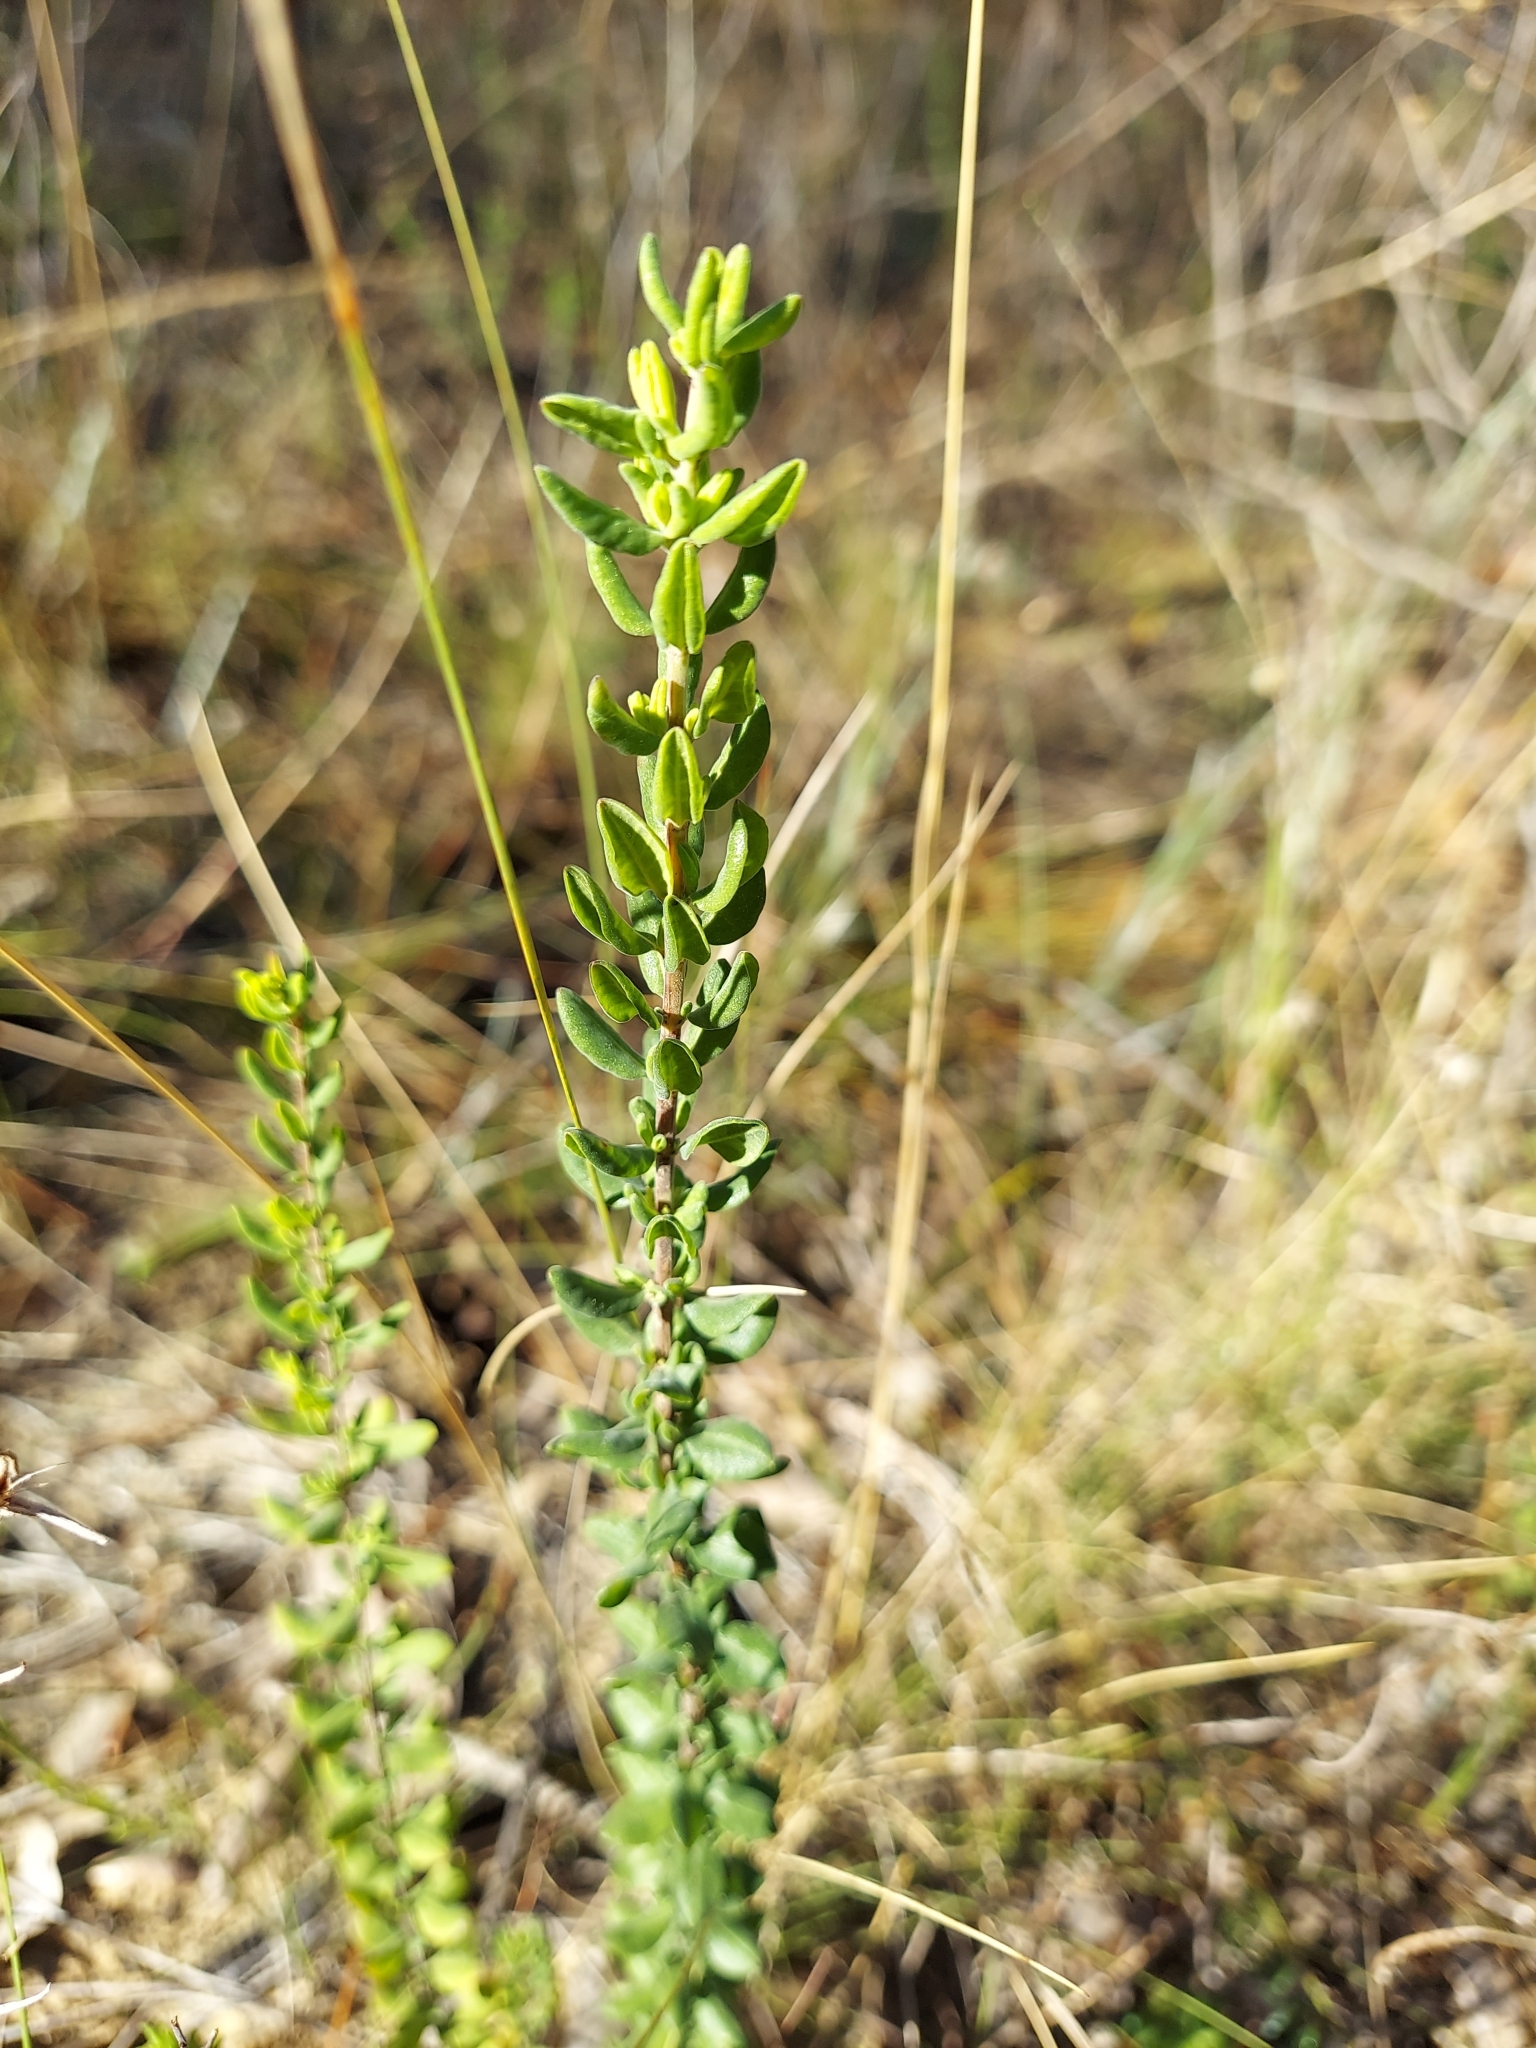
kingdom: Plantae
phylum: Tracheophyta
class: Magnoliopsida
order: Lamiales
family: Lamiaceae
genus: Clinopodium
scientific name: Clinopodium coccineum
